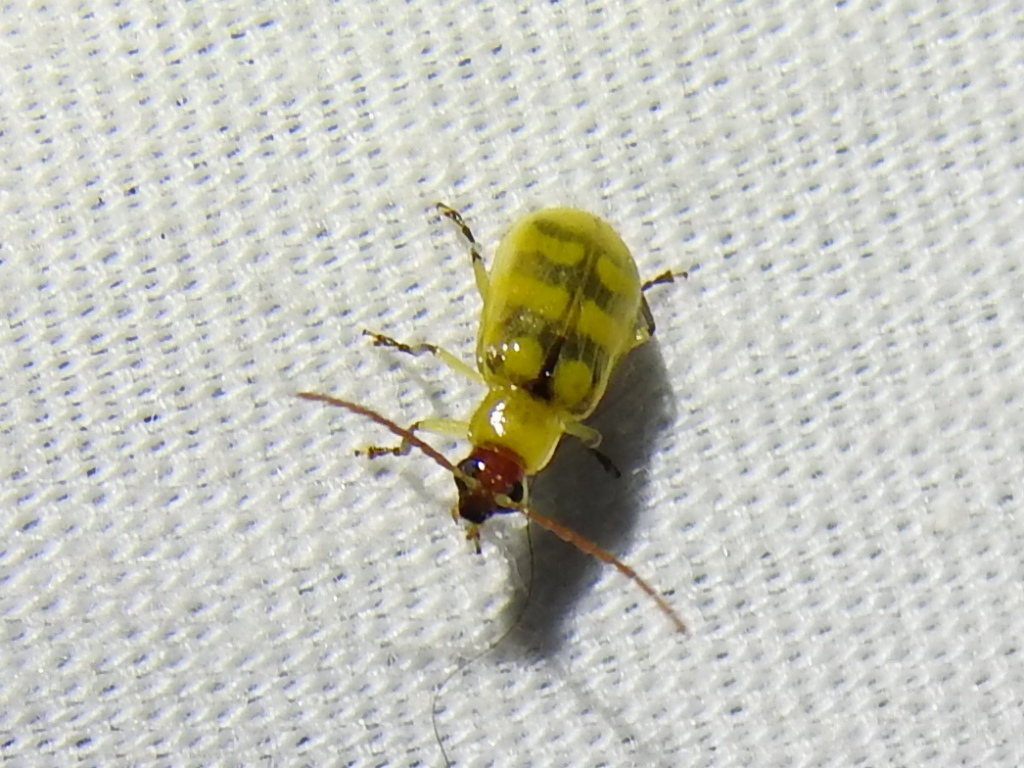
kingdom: Animalia
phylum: Arthropoda
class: Insecta
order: Coleoptera
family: Chrysomelidae
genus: Diabrotica
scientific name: Diabrotica balteata
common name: Leaf beetle
